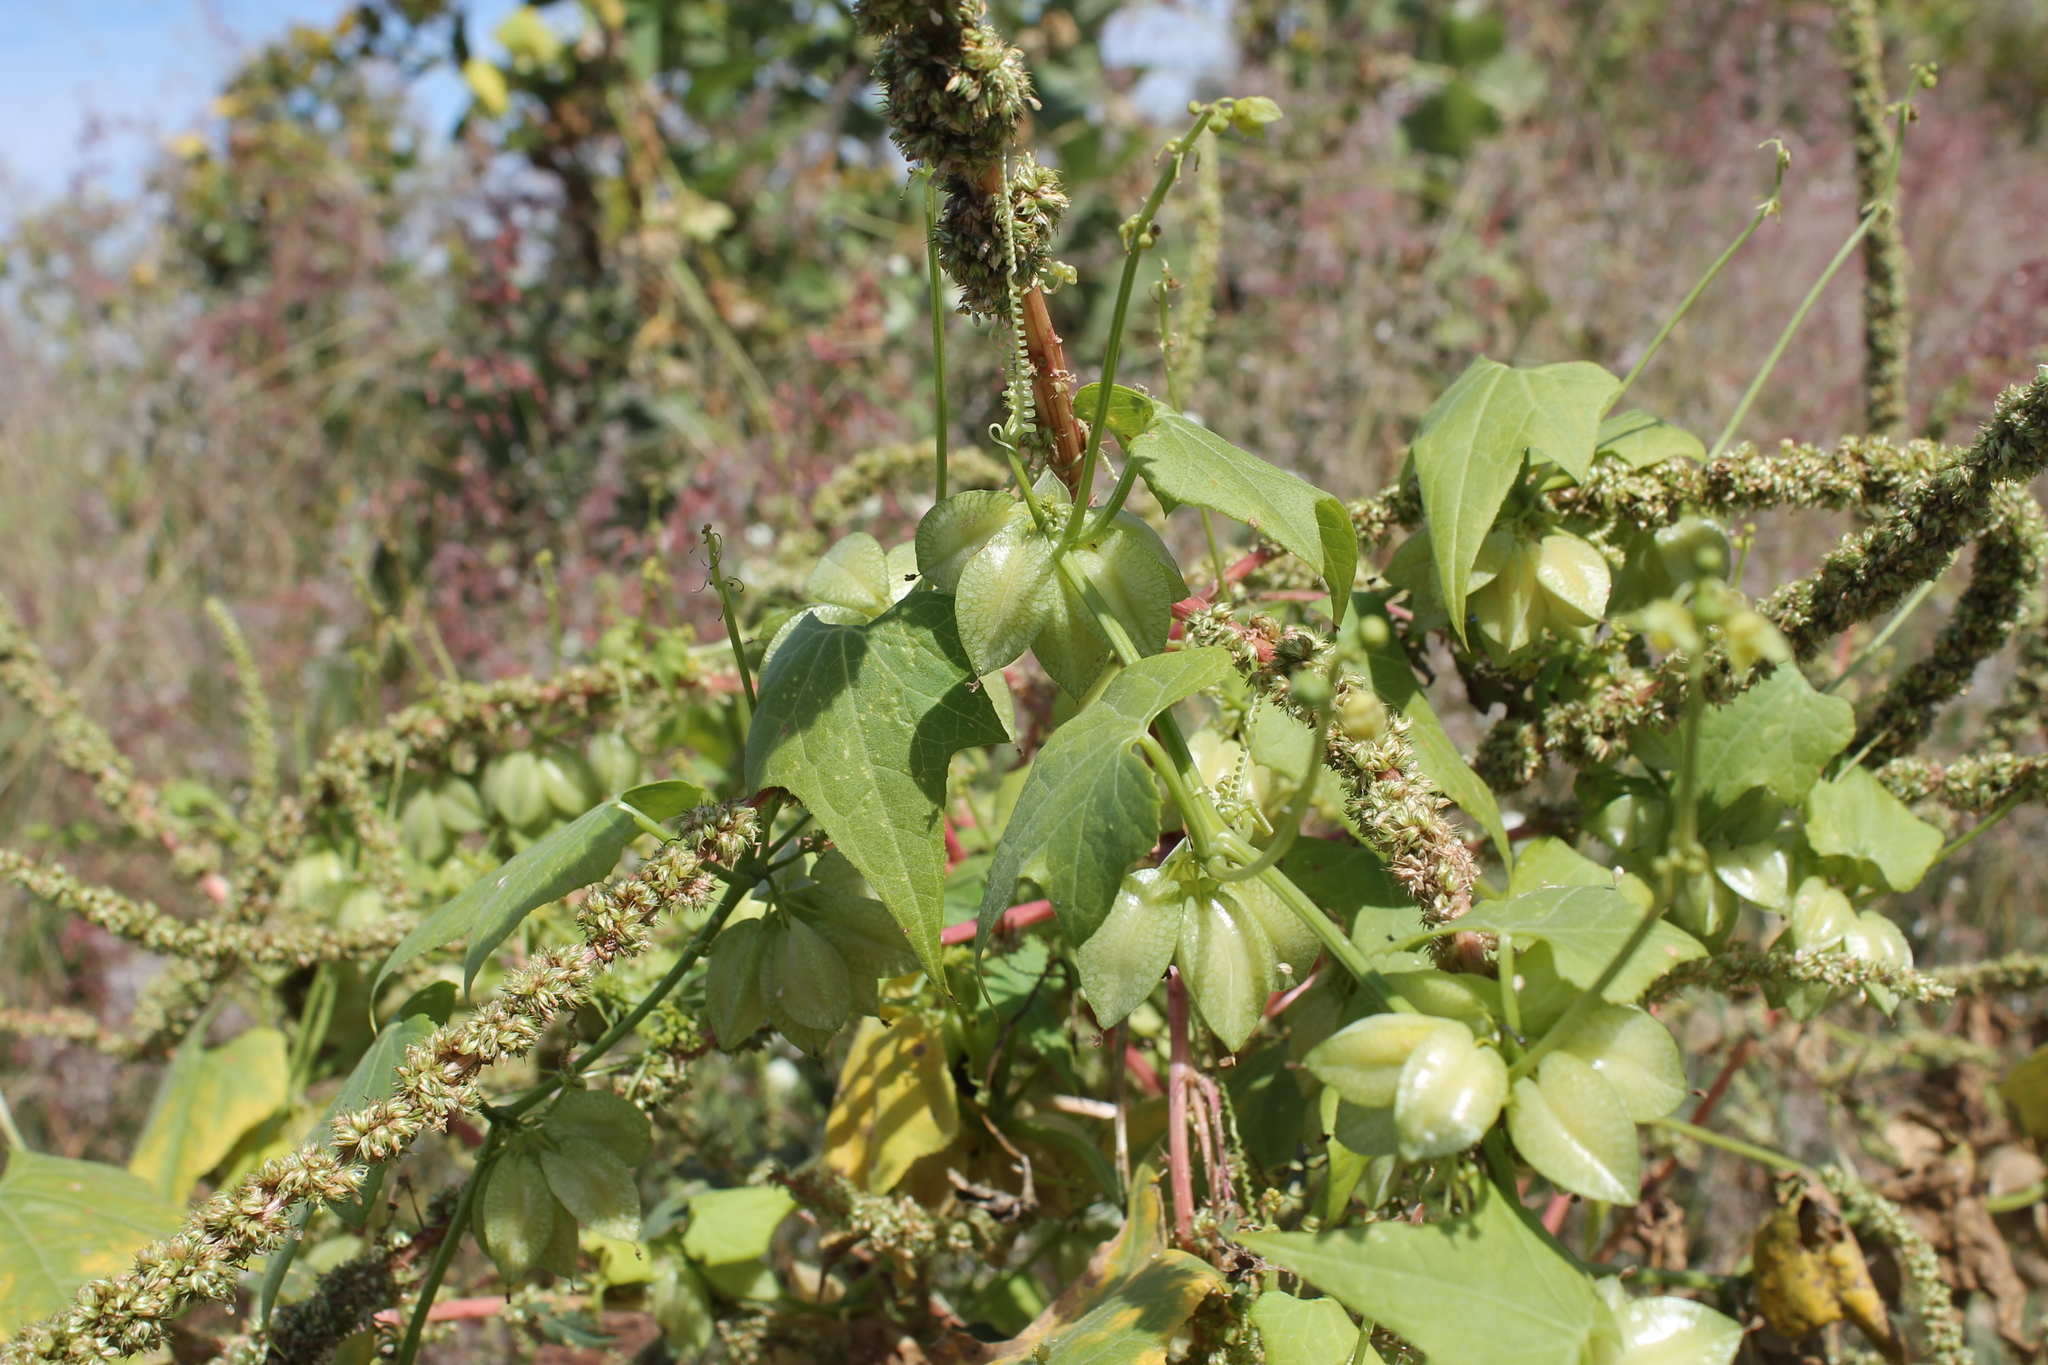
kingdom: Plantae
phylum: Tracheophyta
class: Magnoliopsida
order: Cucurbitales
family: Cucurbitaceae
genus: Sechiopsis
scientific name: Sechiopsis triquetra
